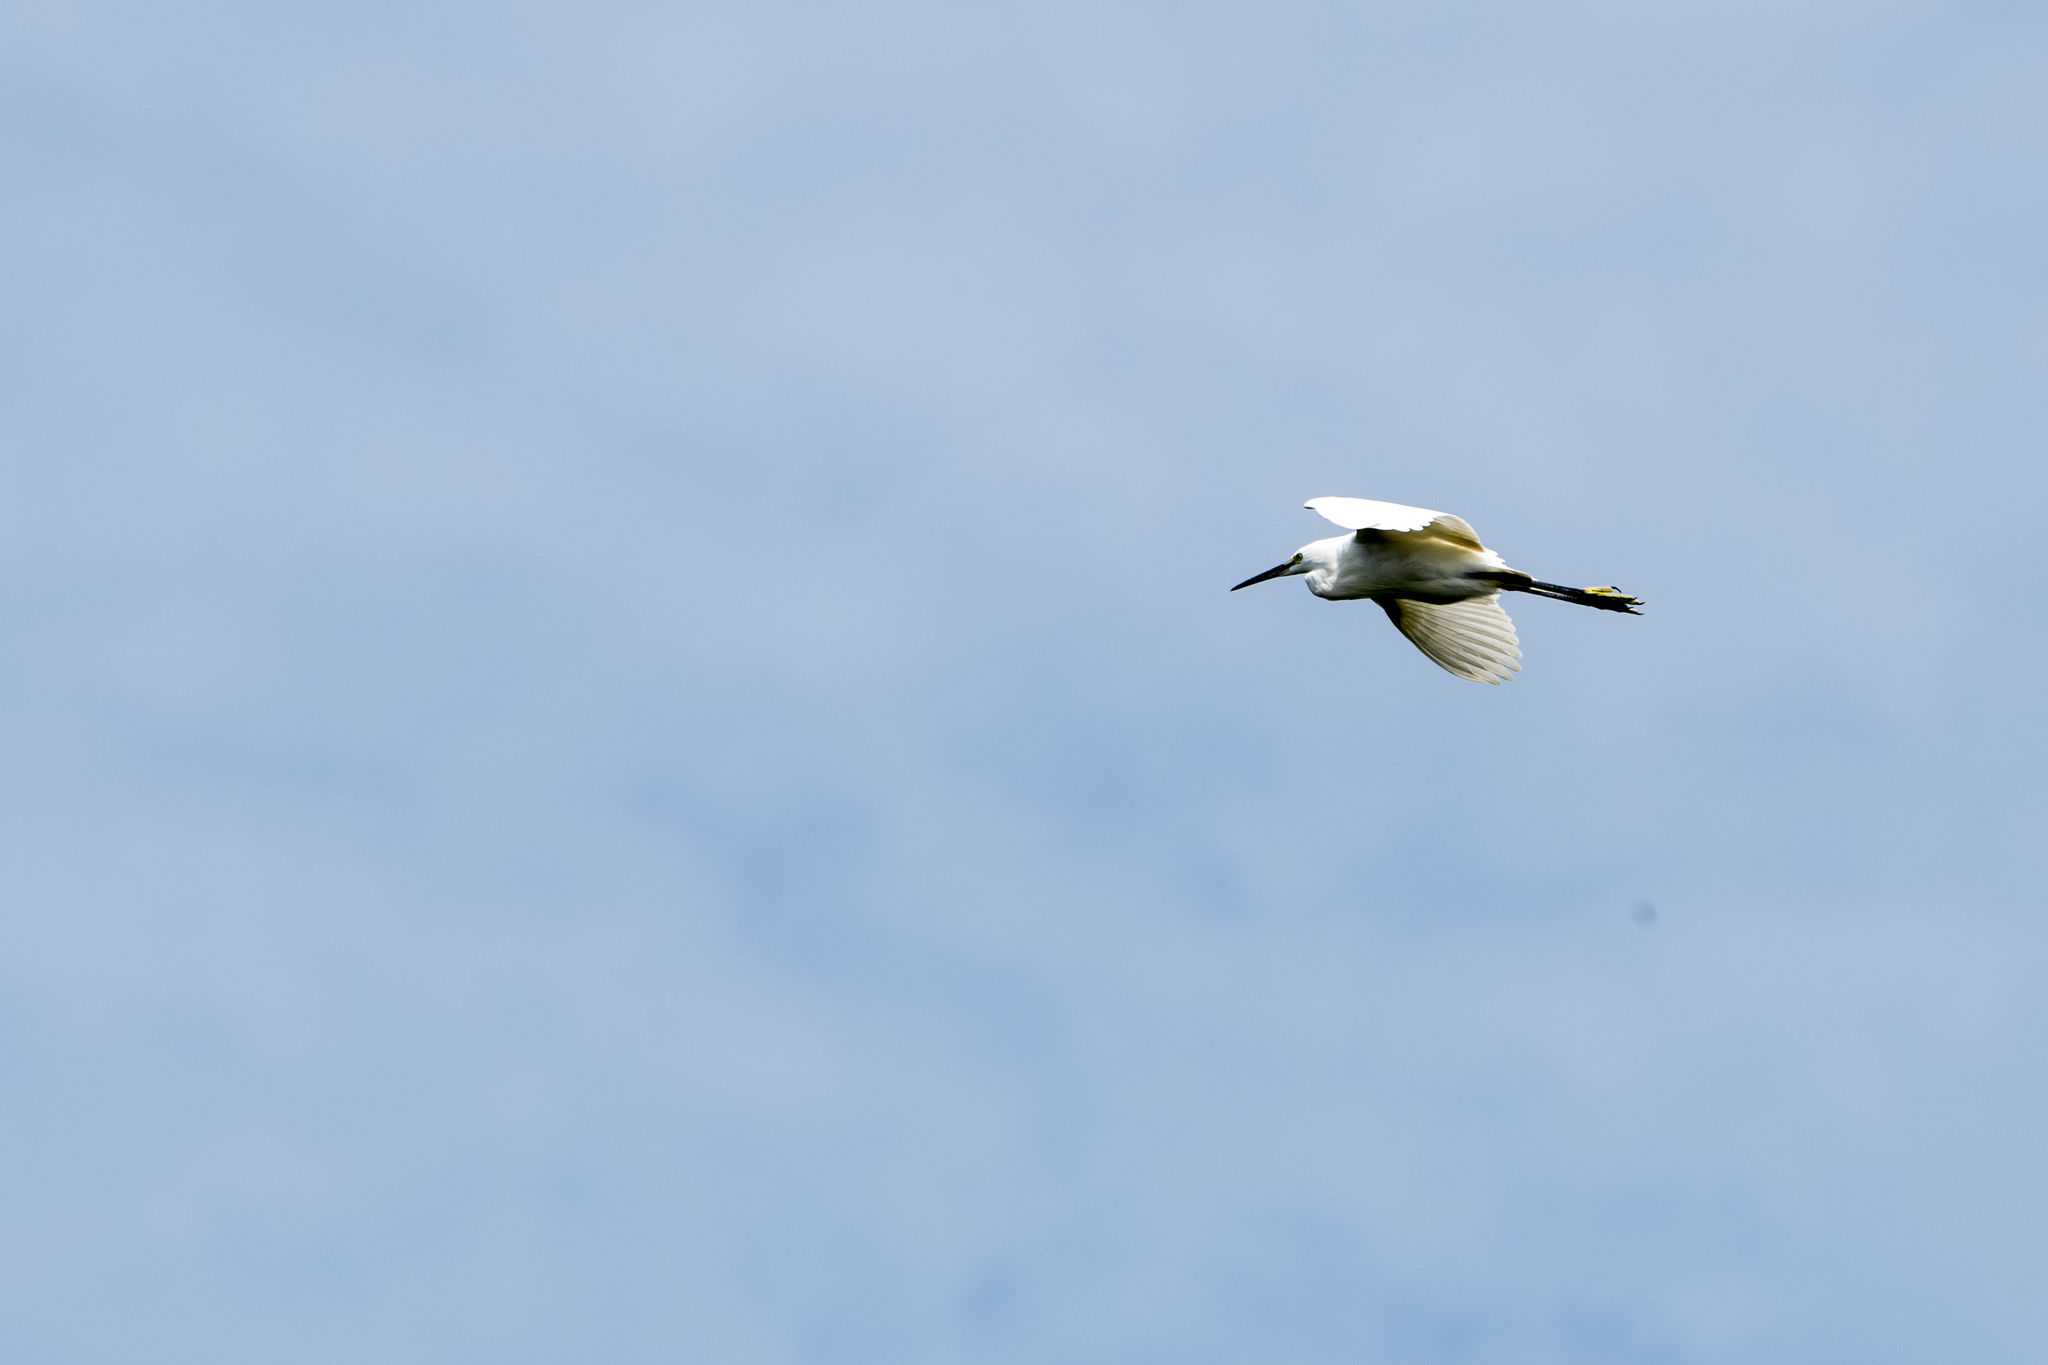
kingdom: Animalia
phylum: Chordata
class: Aves
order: Pelecaniformes
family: Ardeidae
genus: Egretta
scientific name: Egretta garzetta
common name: Little egret
